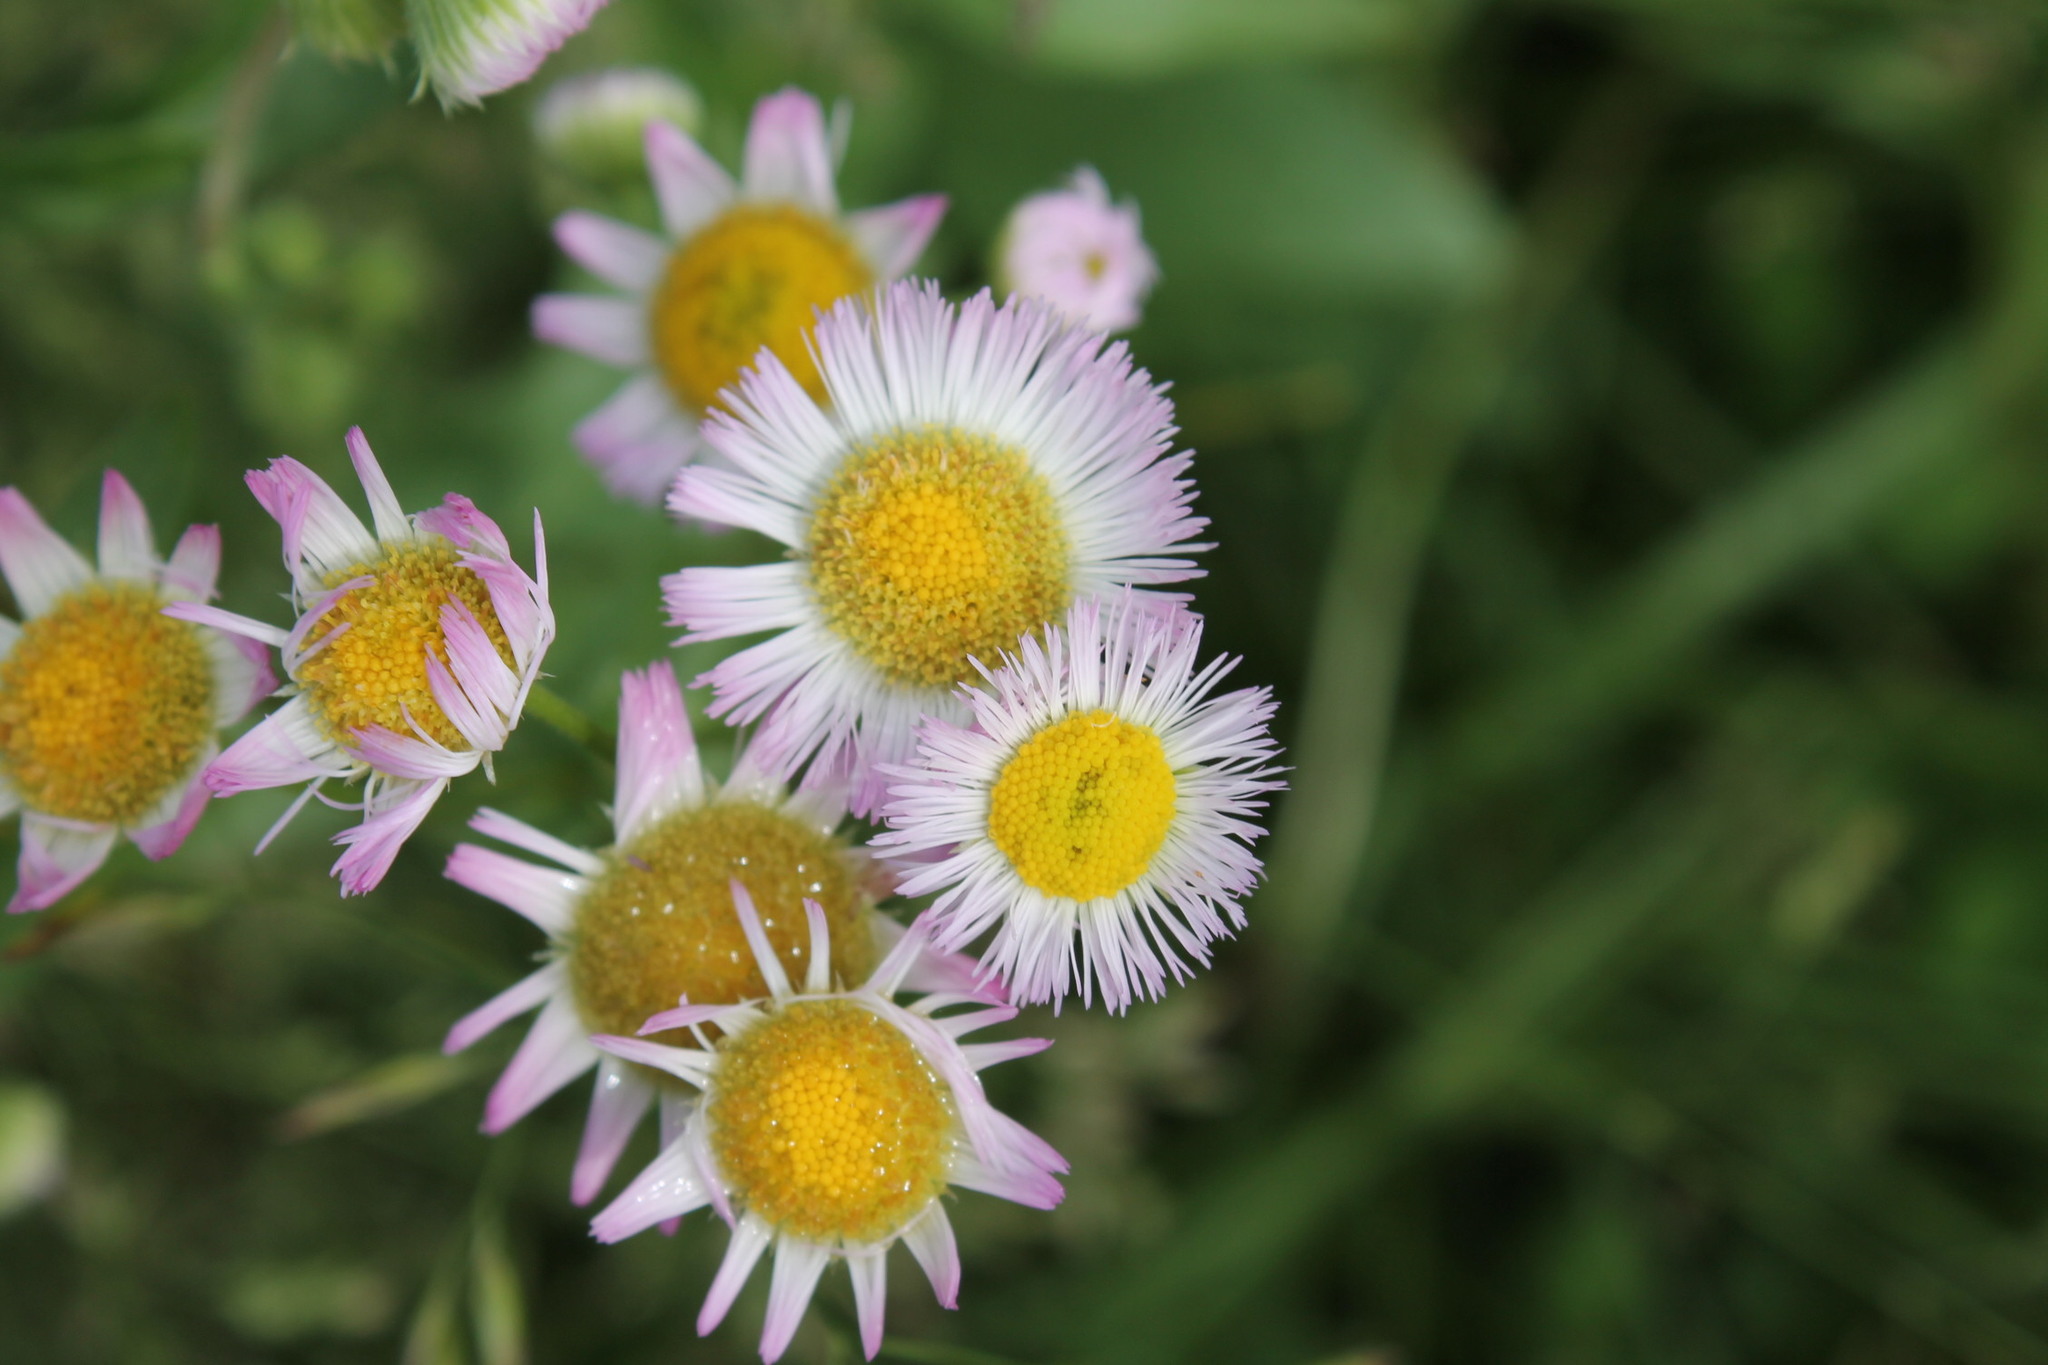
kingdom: Plantae
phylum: Tracheophyta
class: Magnoliopsida
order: Asterales
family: Asteraceae
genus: Erigeron
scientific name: Erigeron philadelphicus
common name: Robin's-plantain
